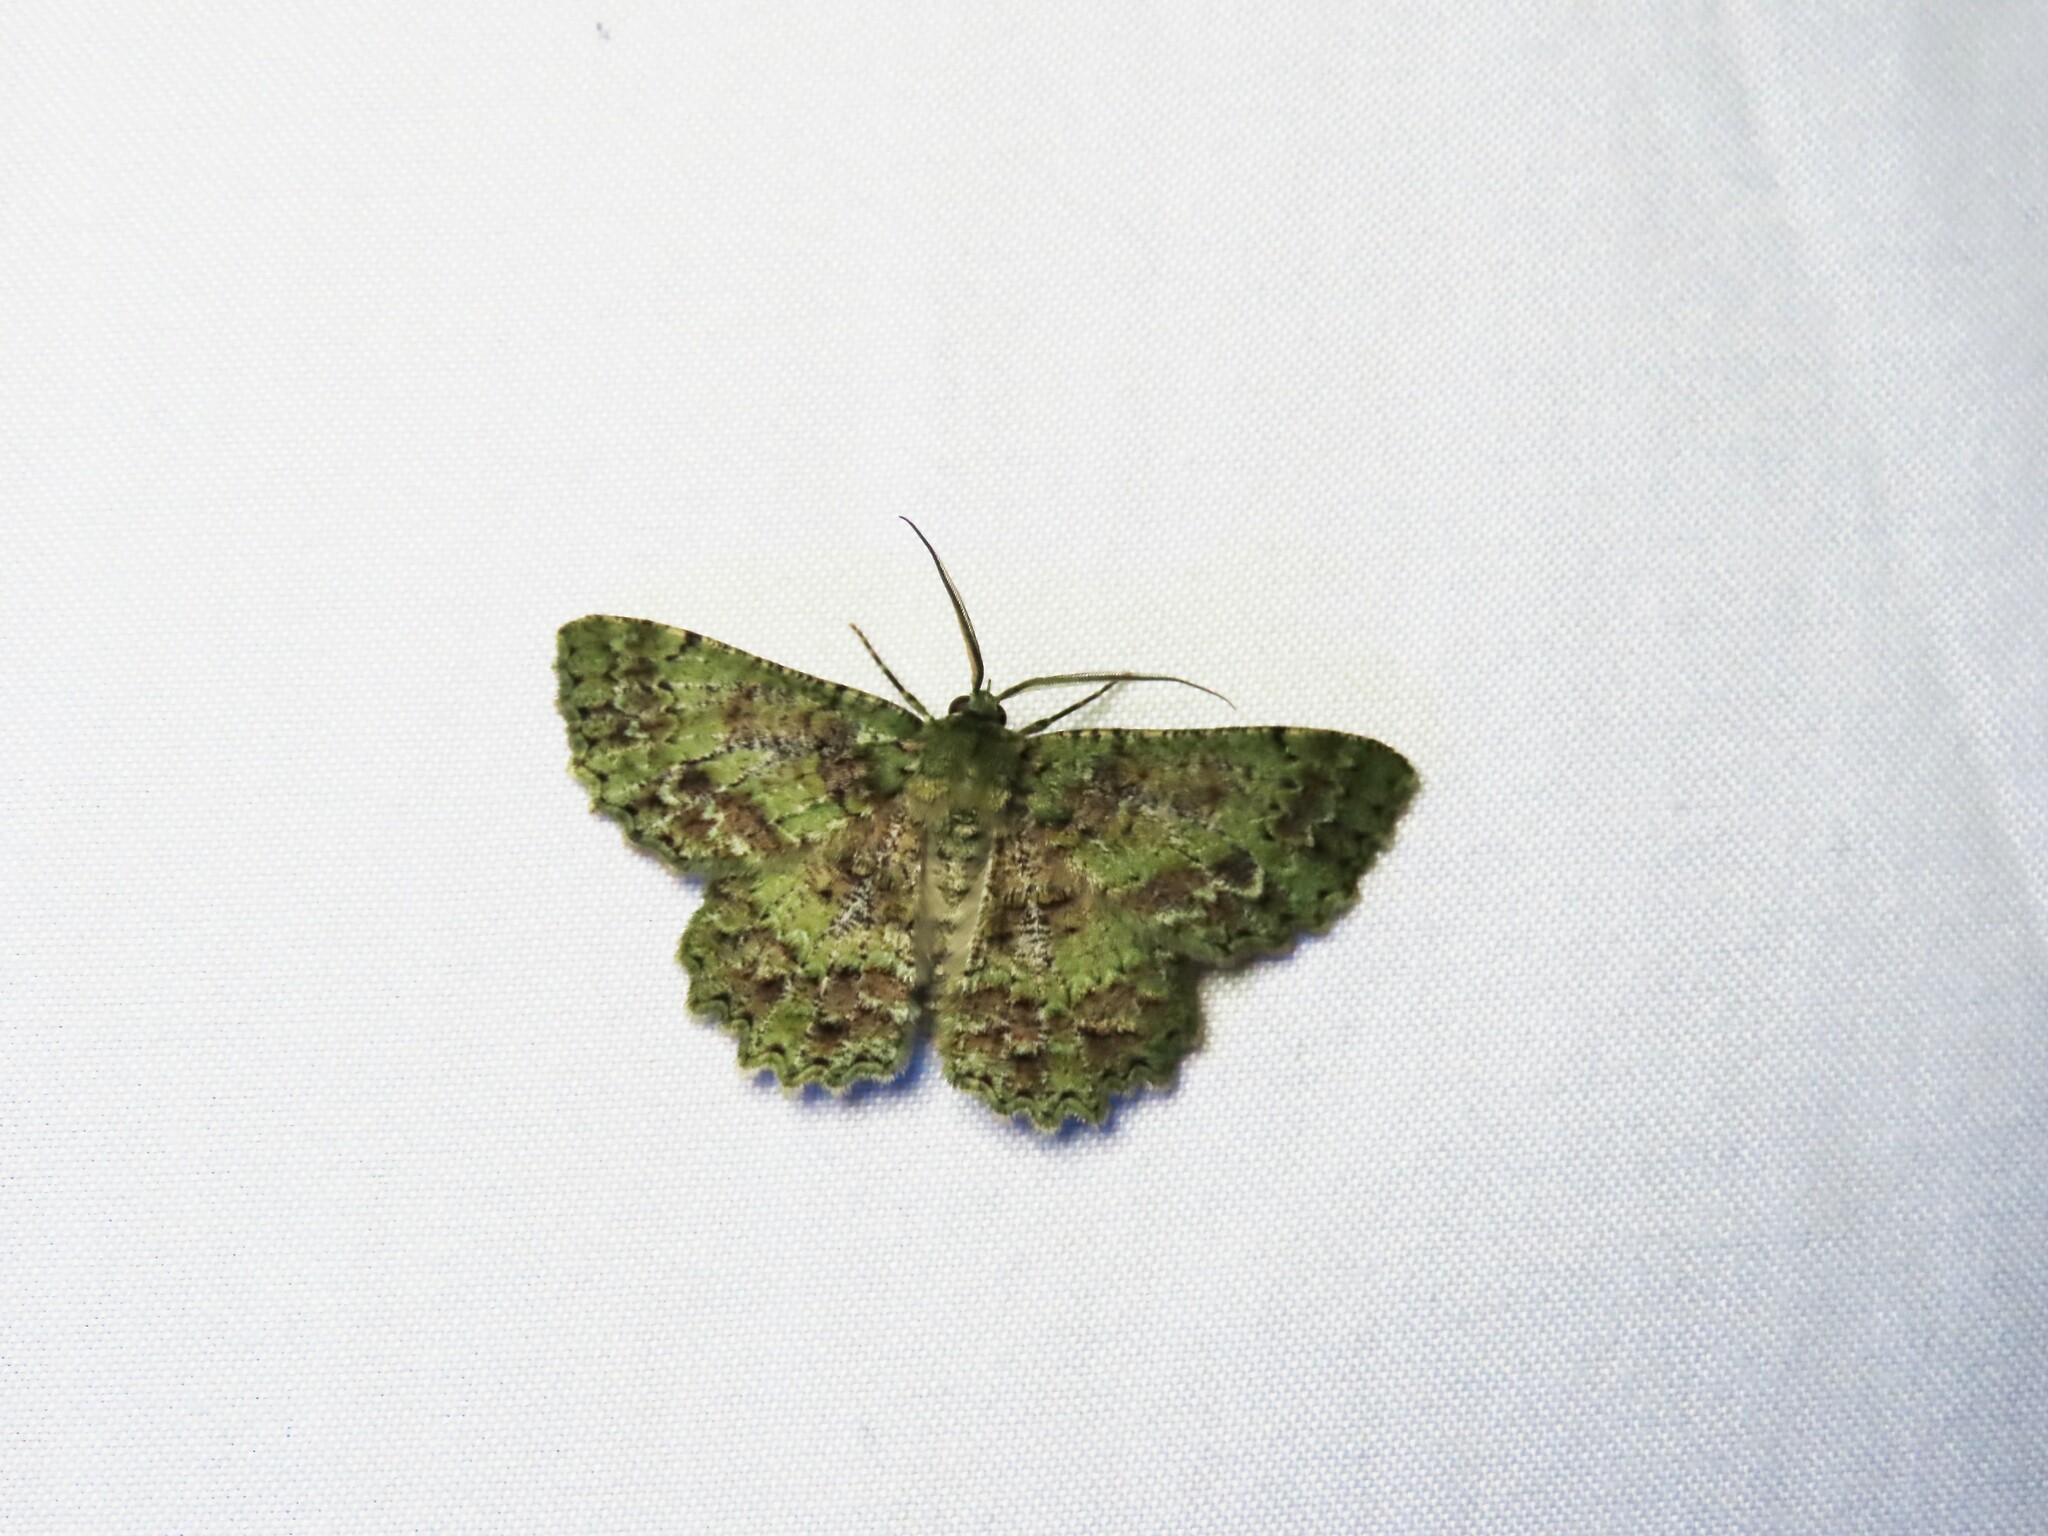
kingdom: Animalia
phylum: Arthropoda
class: Insecta
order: Lepidoptera
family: Geometridae
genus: Hypodoxa
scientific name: Hypodoxa muscosaria
